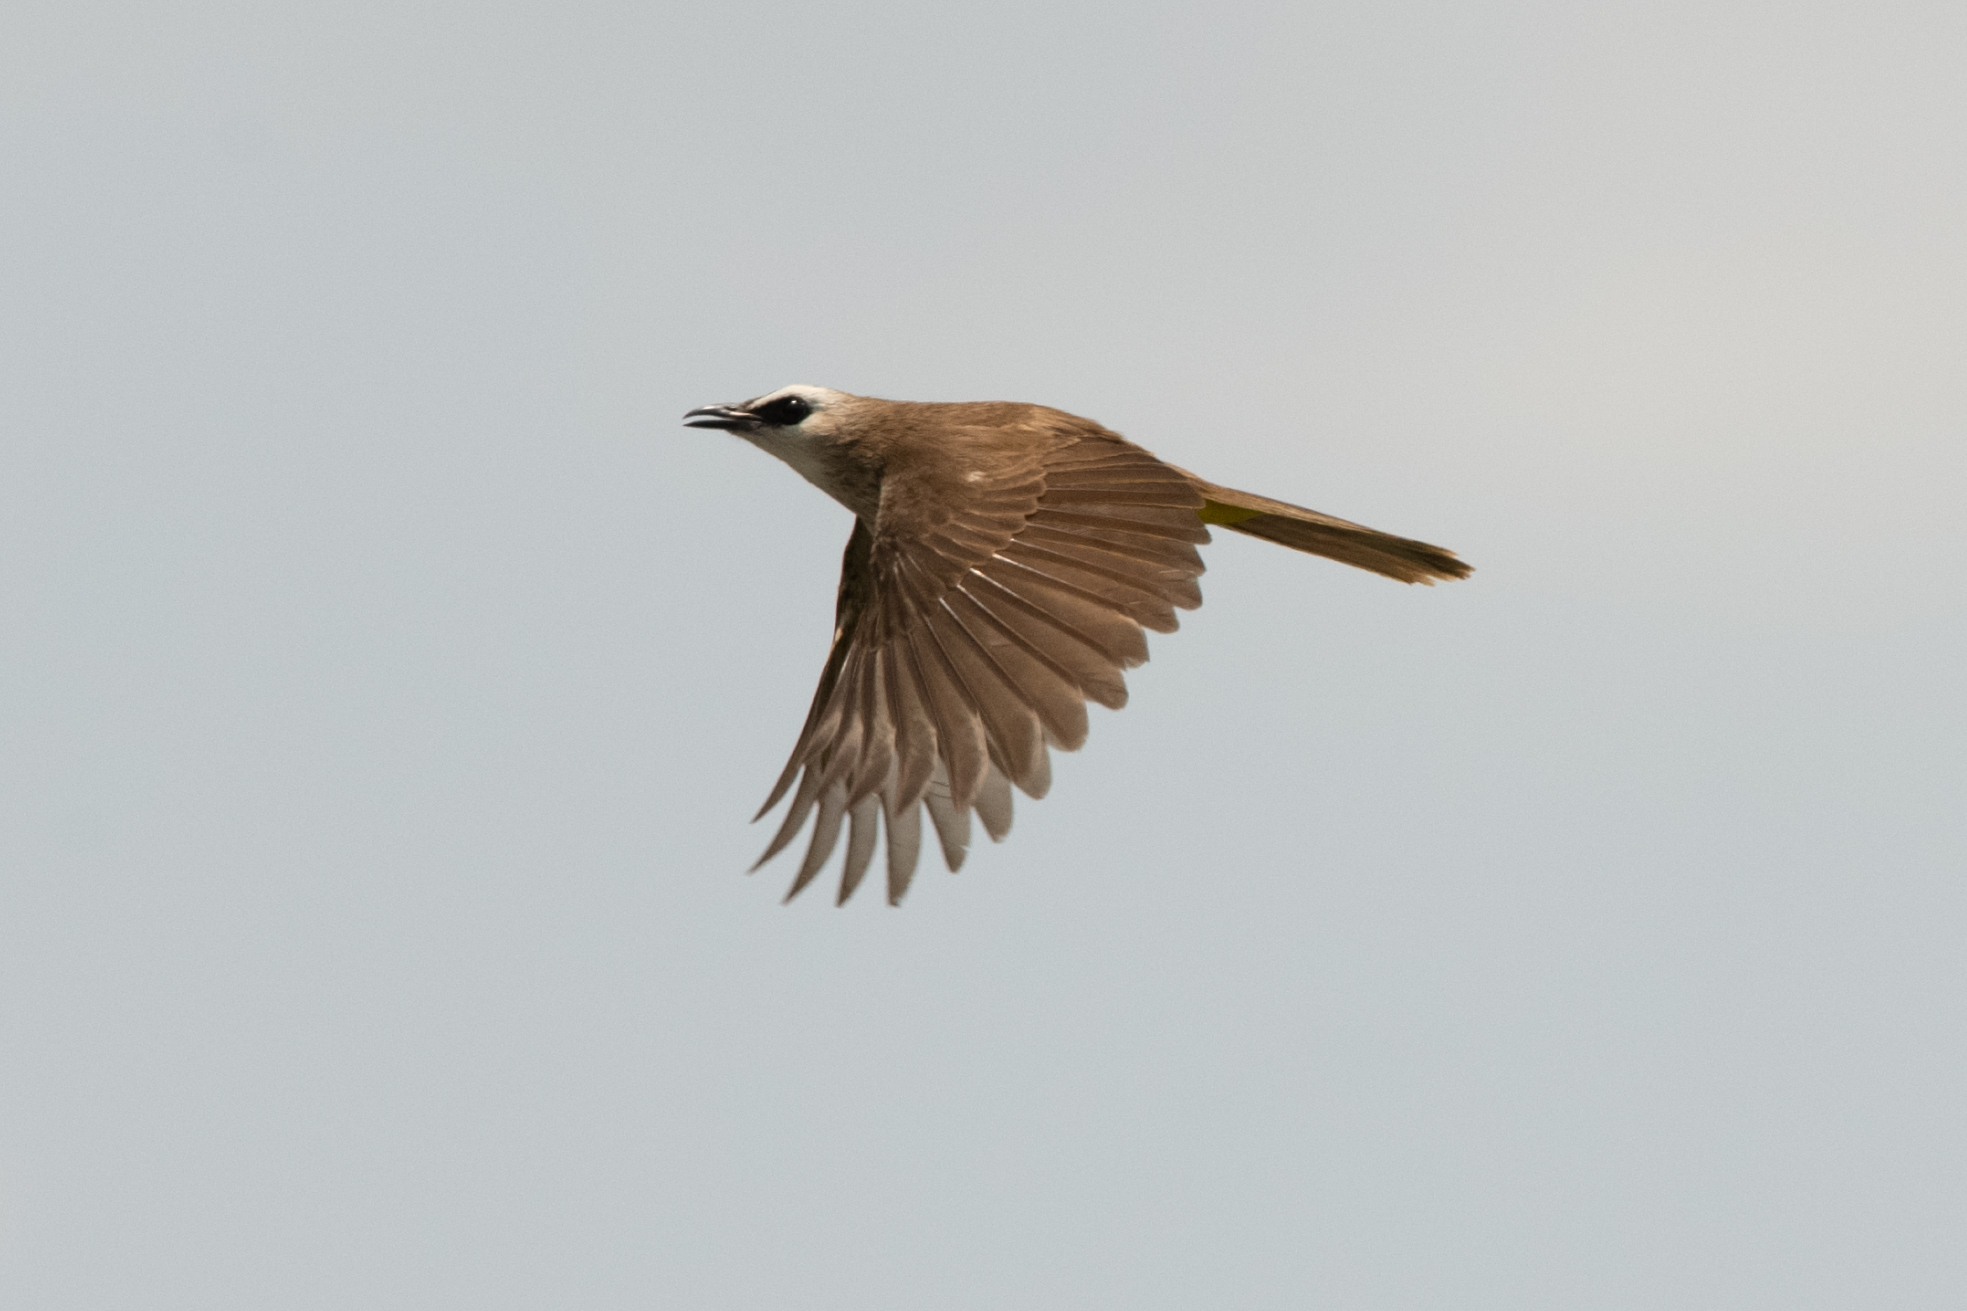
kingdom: Animalia
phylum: Chordata
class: Aves
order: Passeriformes
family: Pycnonotidae
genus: Pycnonotus
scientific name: Pycnonotus goiavier
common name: Yellow-vented bulbul
